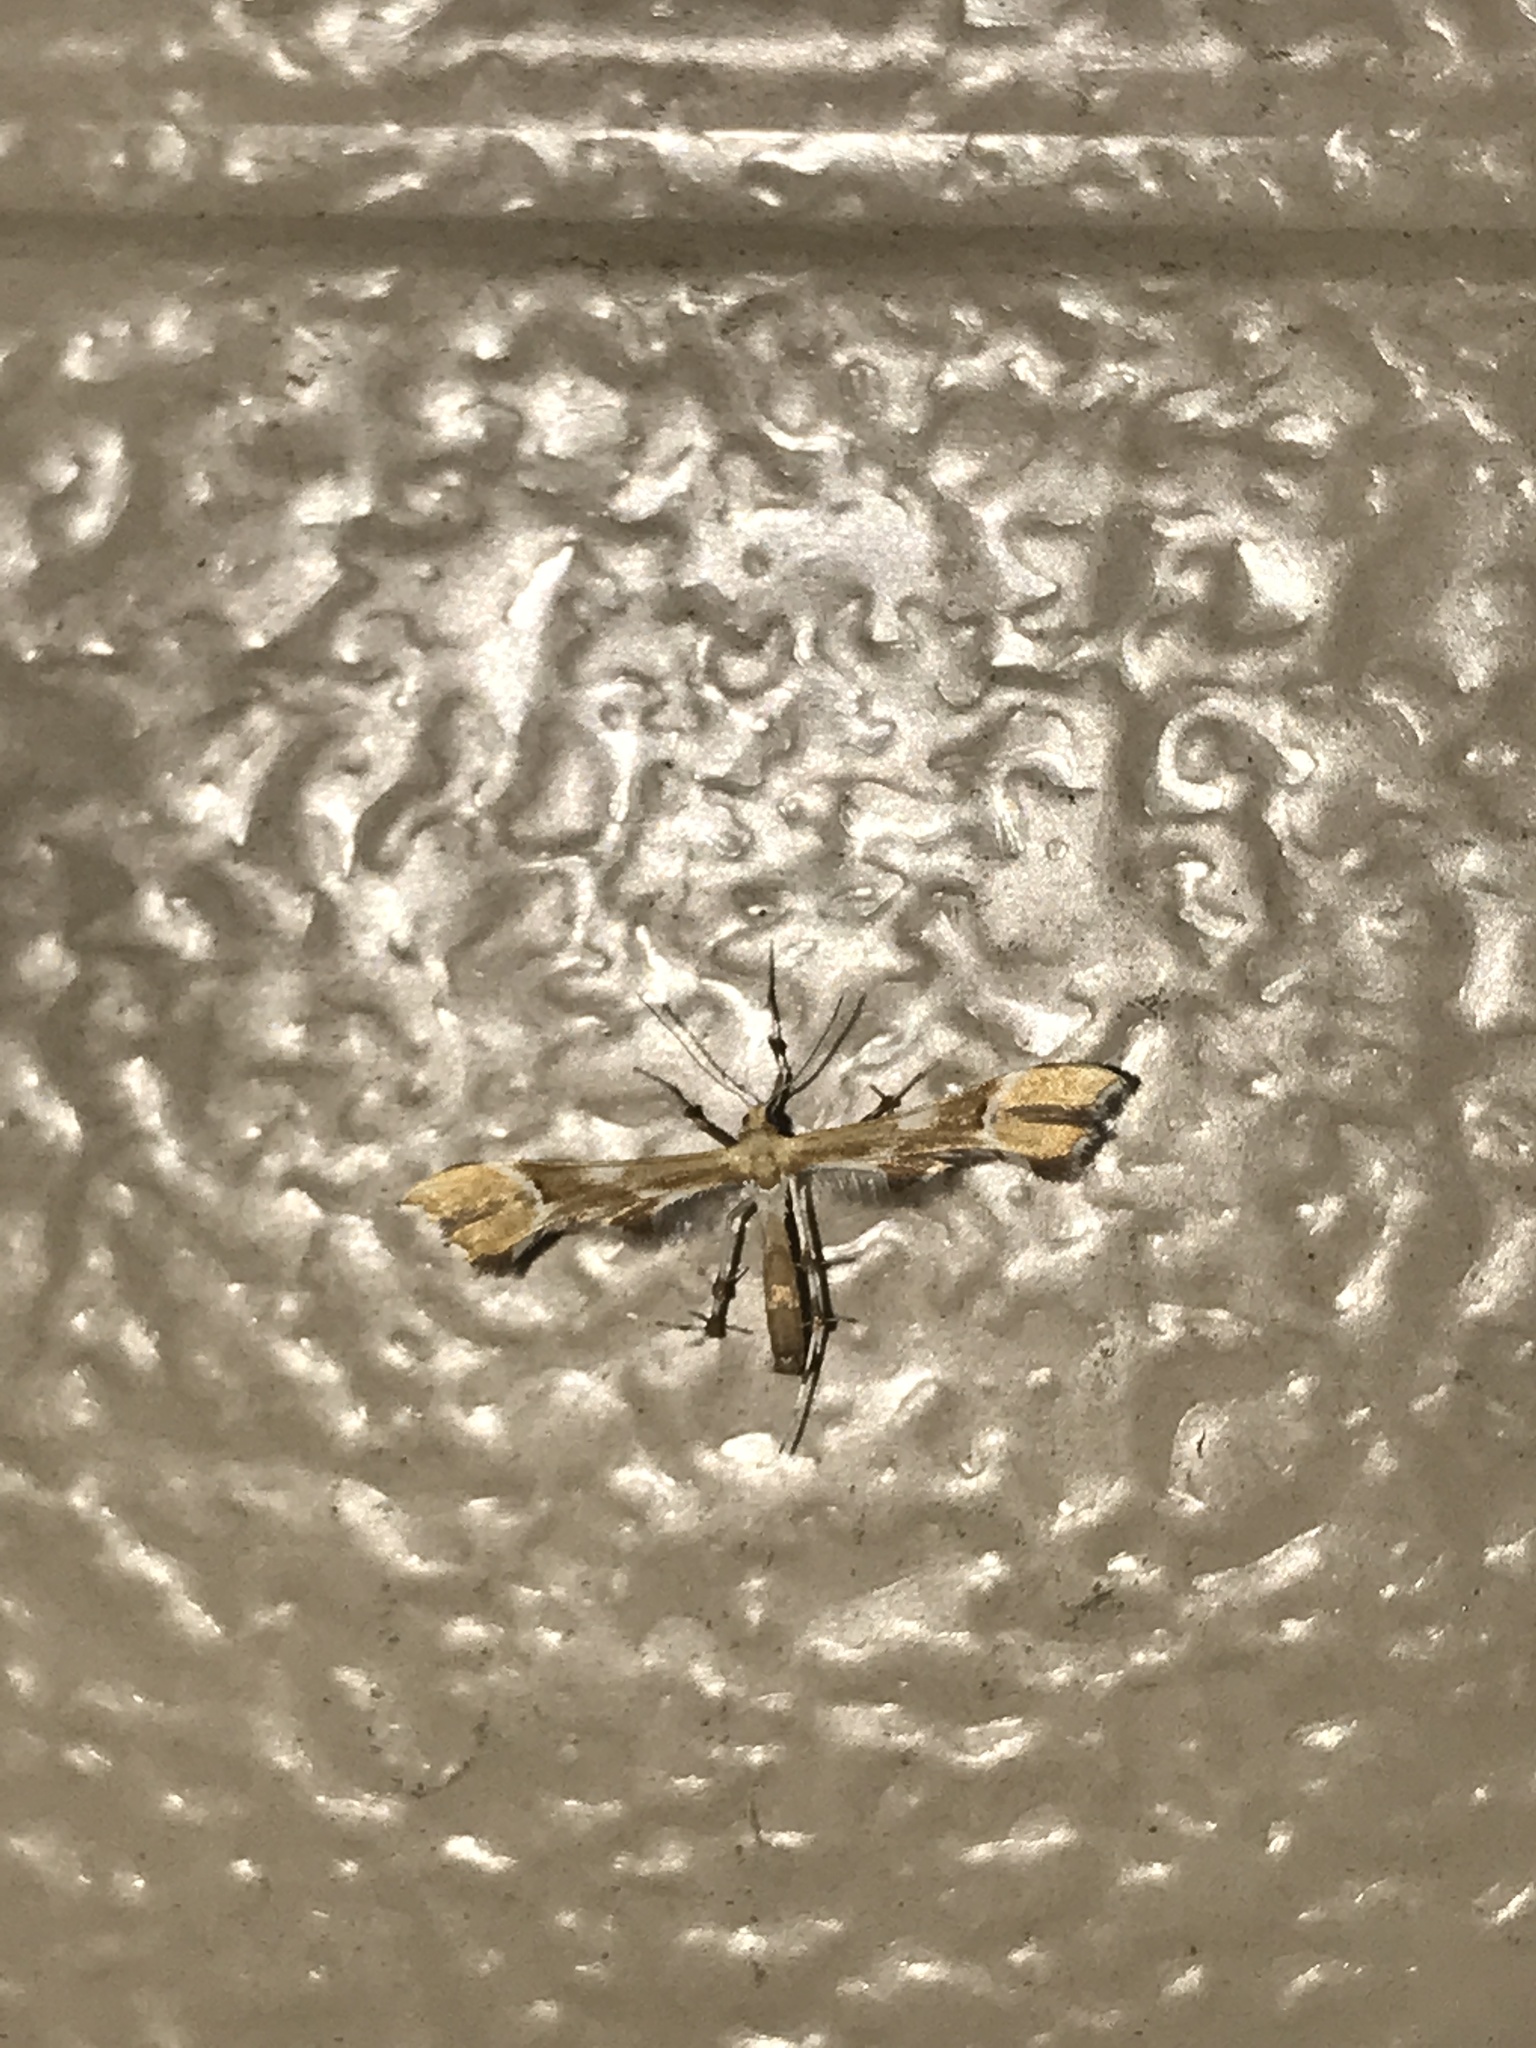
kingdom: Animalia
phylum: Arthropoda
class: Insecta
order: Lepidoptera
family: Pterophoridae
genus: Cnaemidophorus
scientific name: Cnaemidophorus rhododactyla
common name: Rose plume
